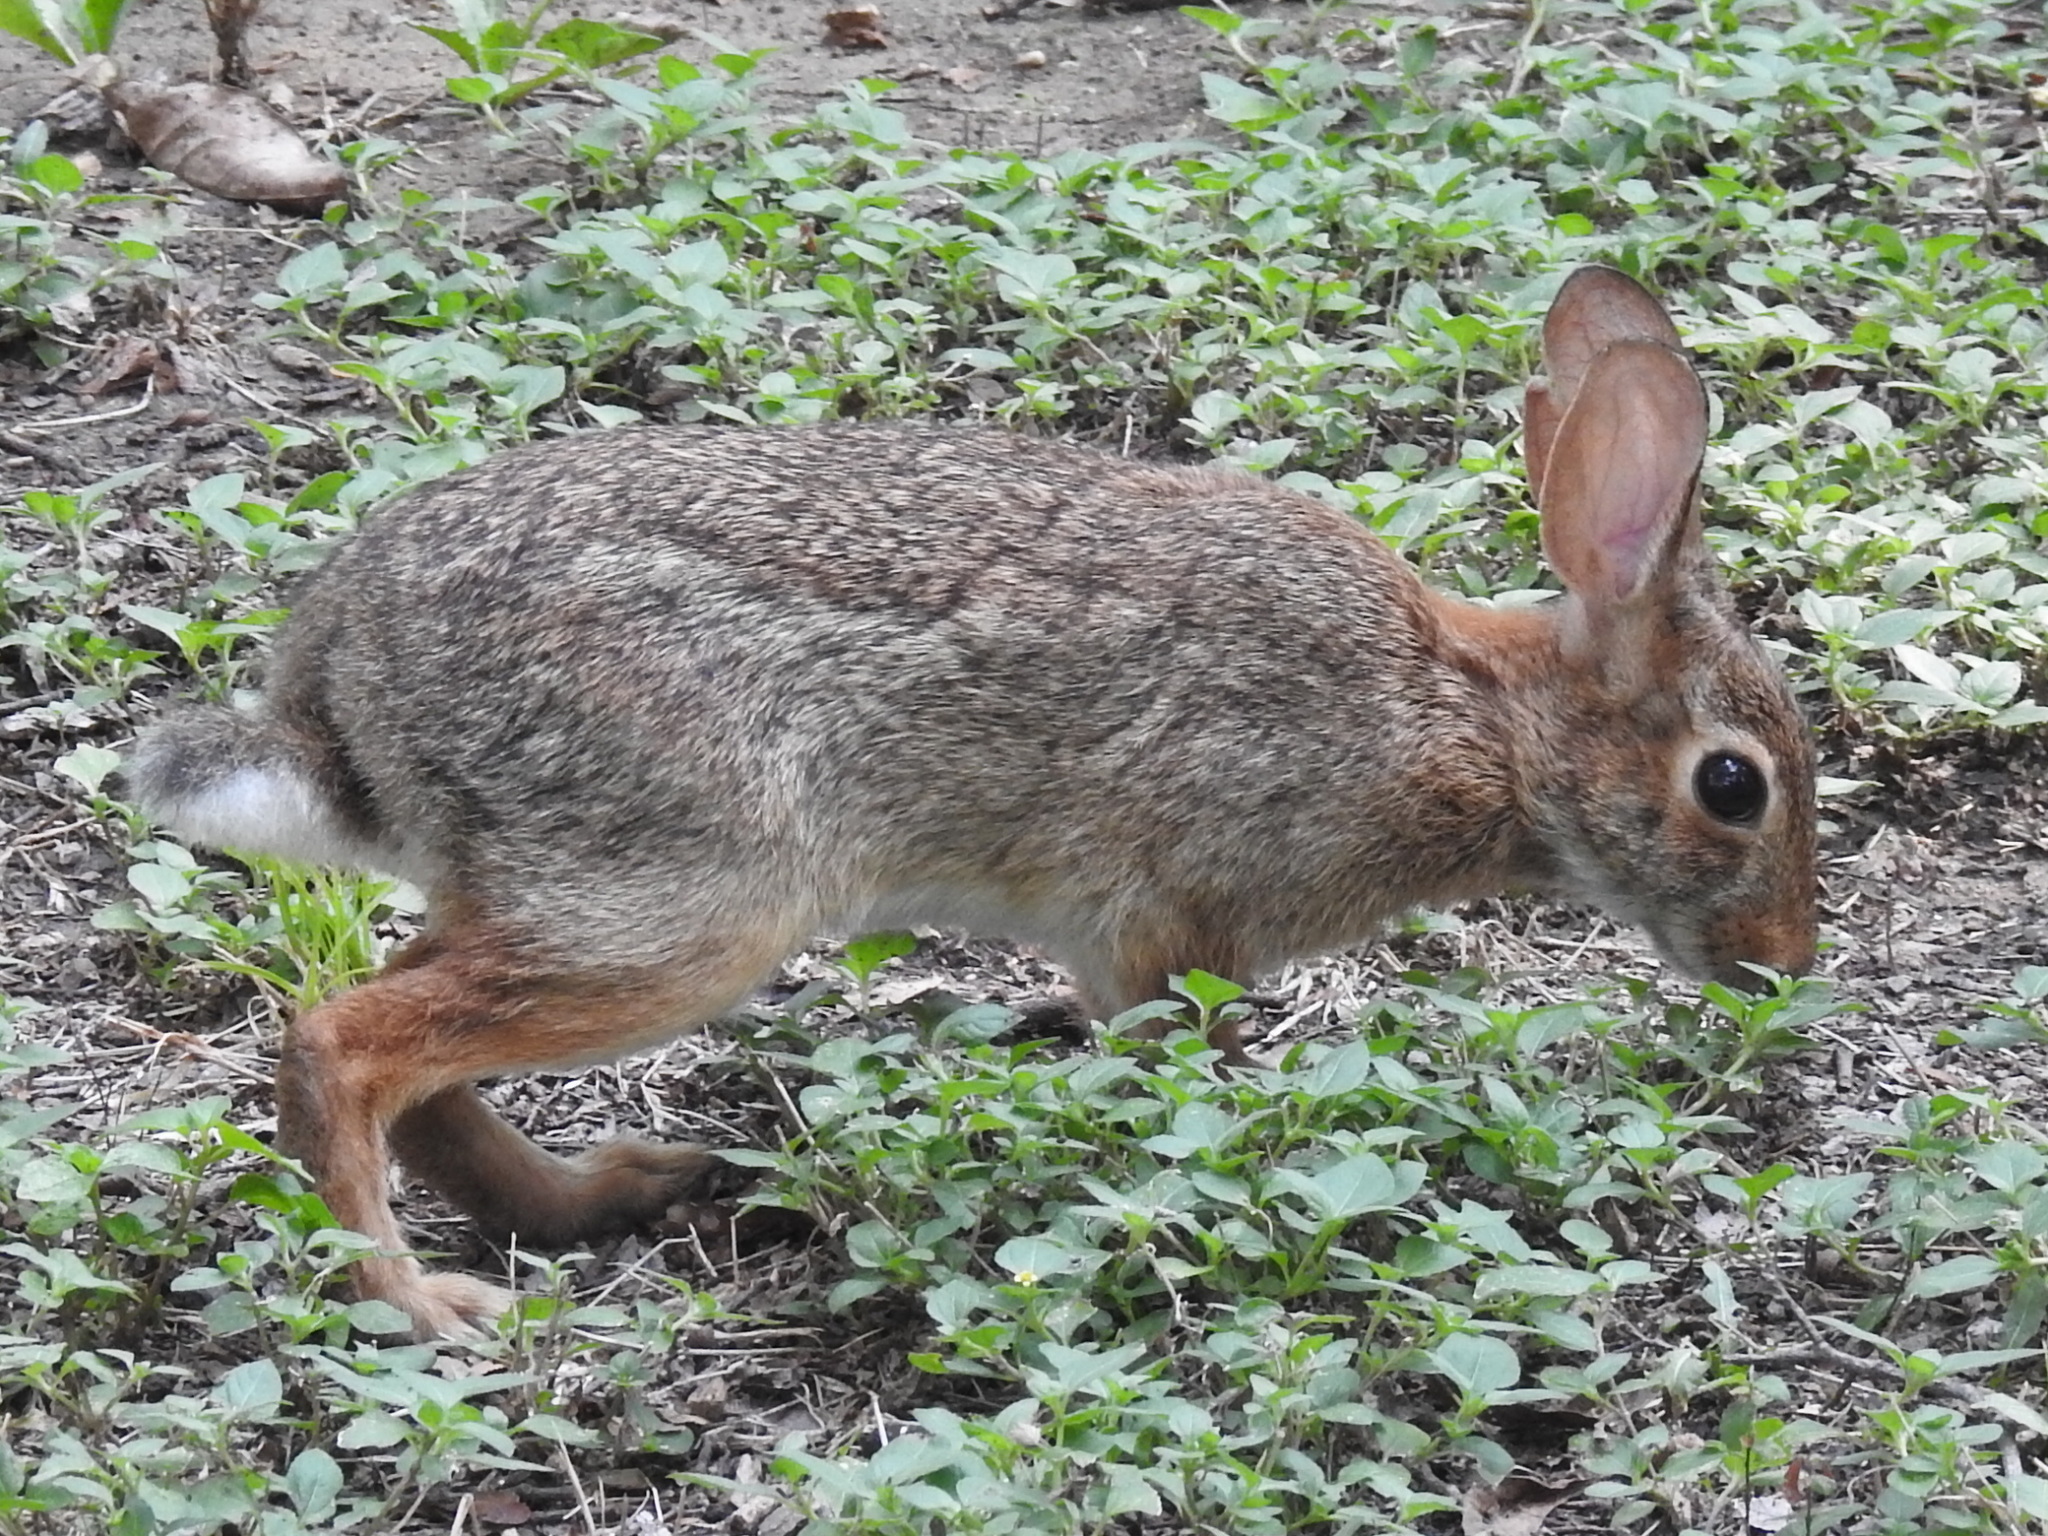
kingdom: Animalia
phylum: Chordata
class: Mammalia
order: Lagomorpha
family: Leporidae
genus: Sylvilagus
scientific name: Sylvilagus floridanus
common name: Eastern cottontail
